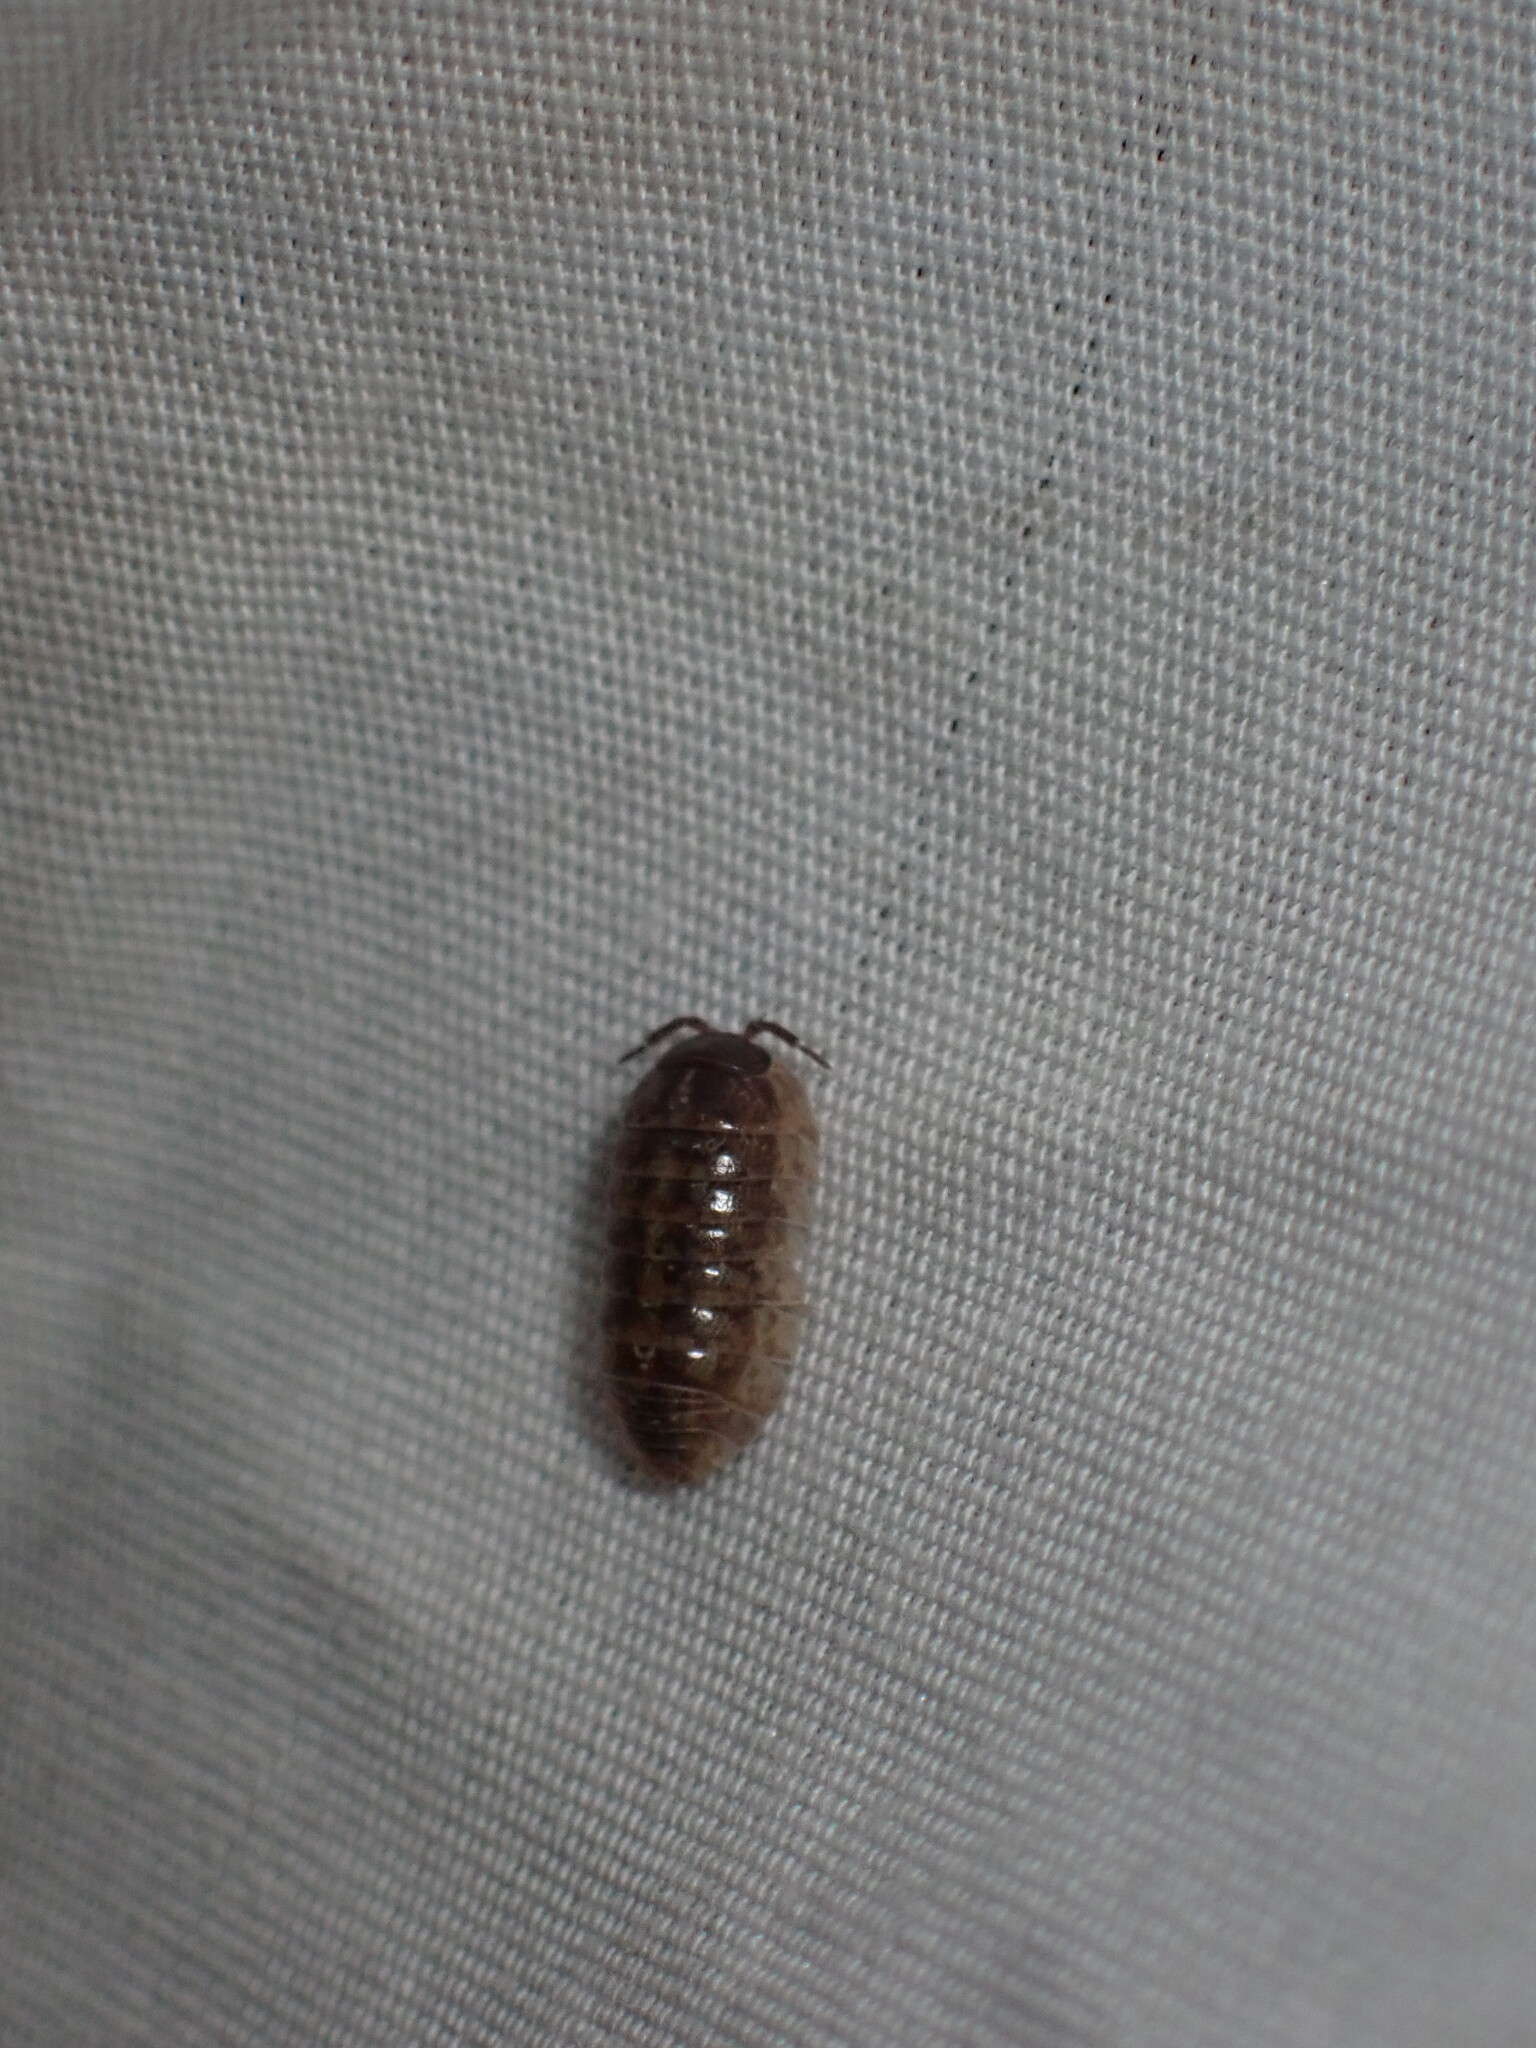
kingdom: Animalia
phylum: Arthropoda
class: Malacostraca
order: Isopoda
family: Armadillidiidae
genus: Armadillidium
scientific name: Armadillidium vulgare
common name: Common pill woodlouse
